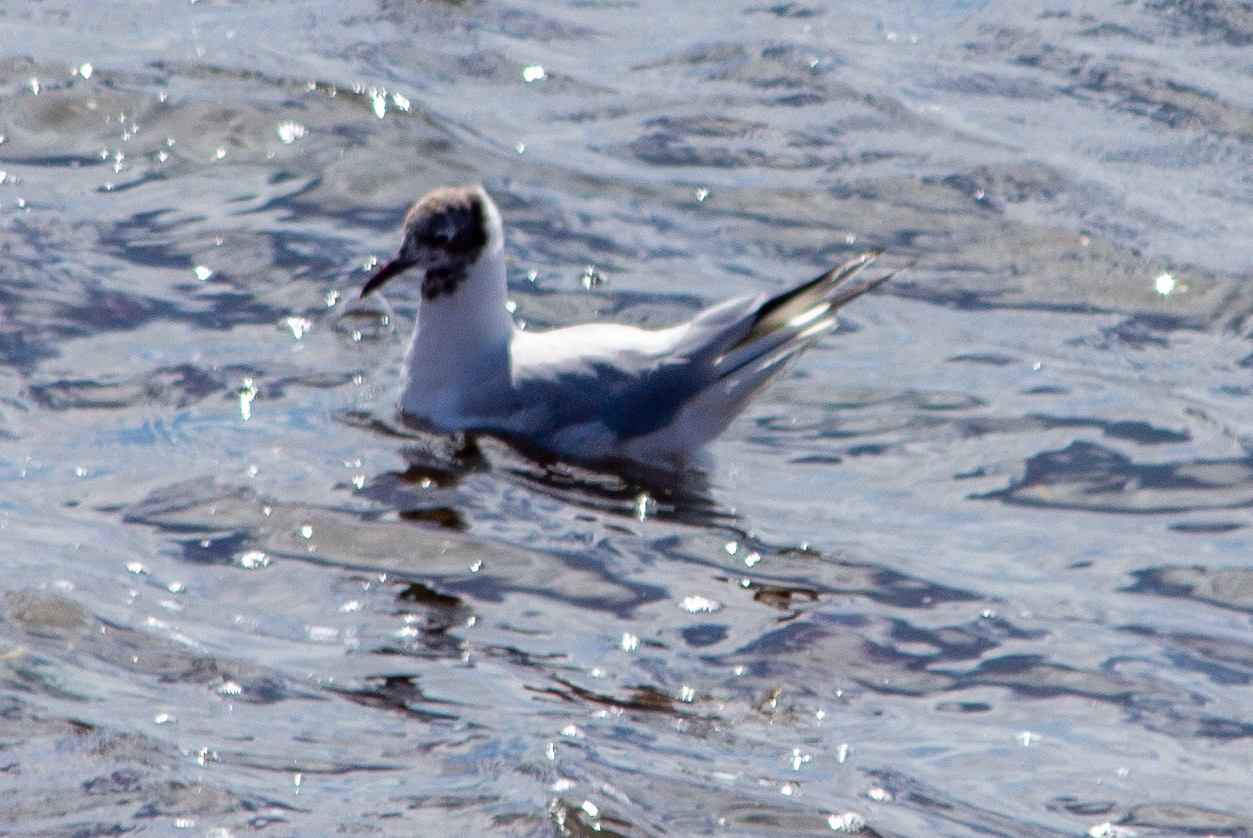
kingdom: Animalia
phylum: Chordata
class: Aves
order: Charadriiformes
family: Laridae
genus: Chroicocephalus
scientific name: Chroicocephalus ridibundus
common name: Black-headed gull
